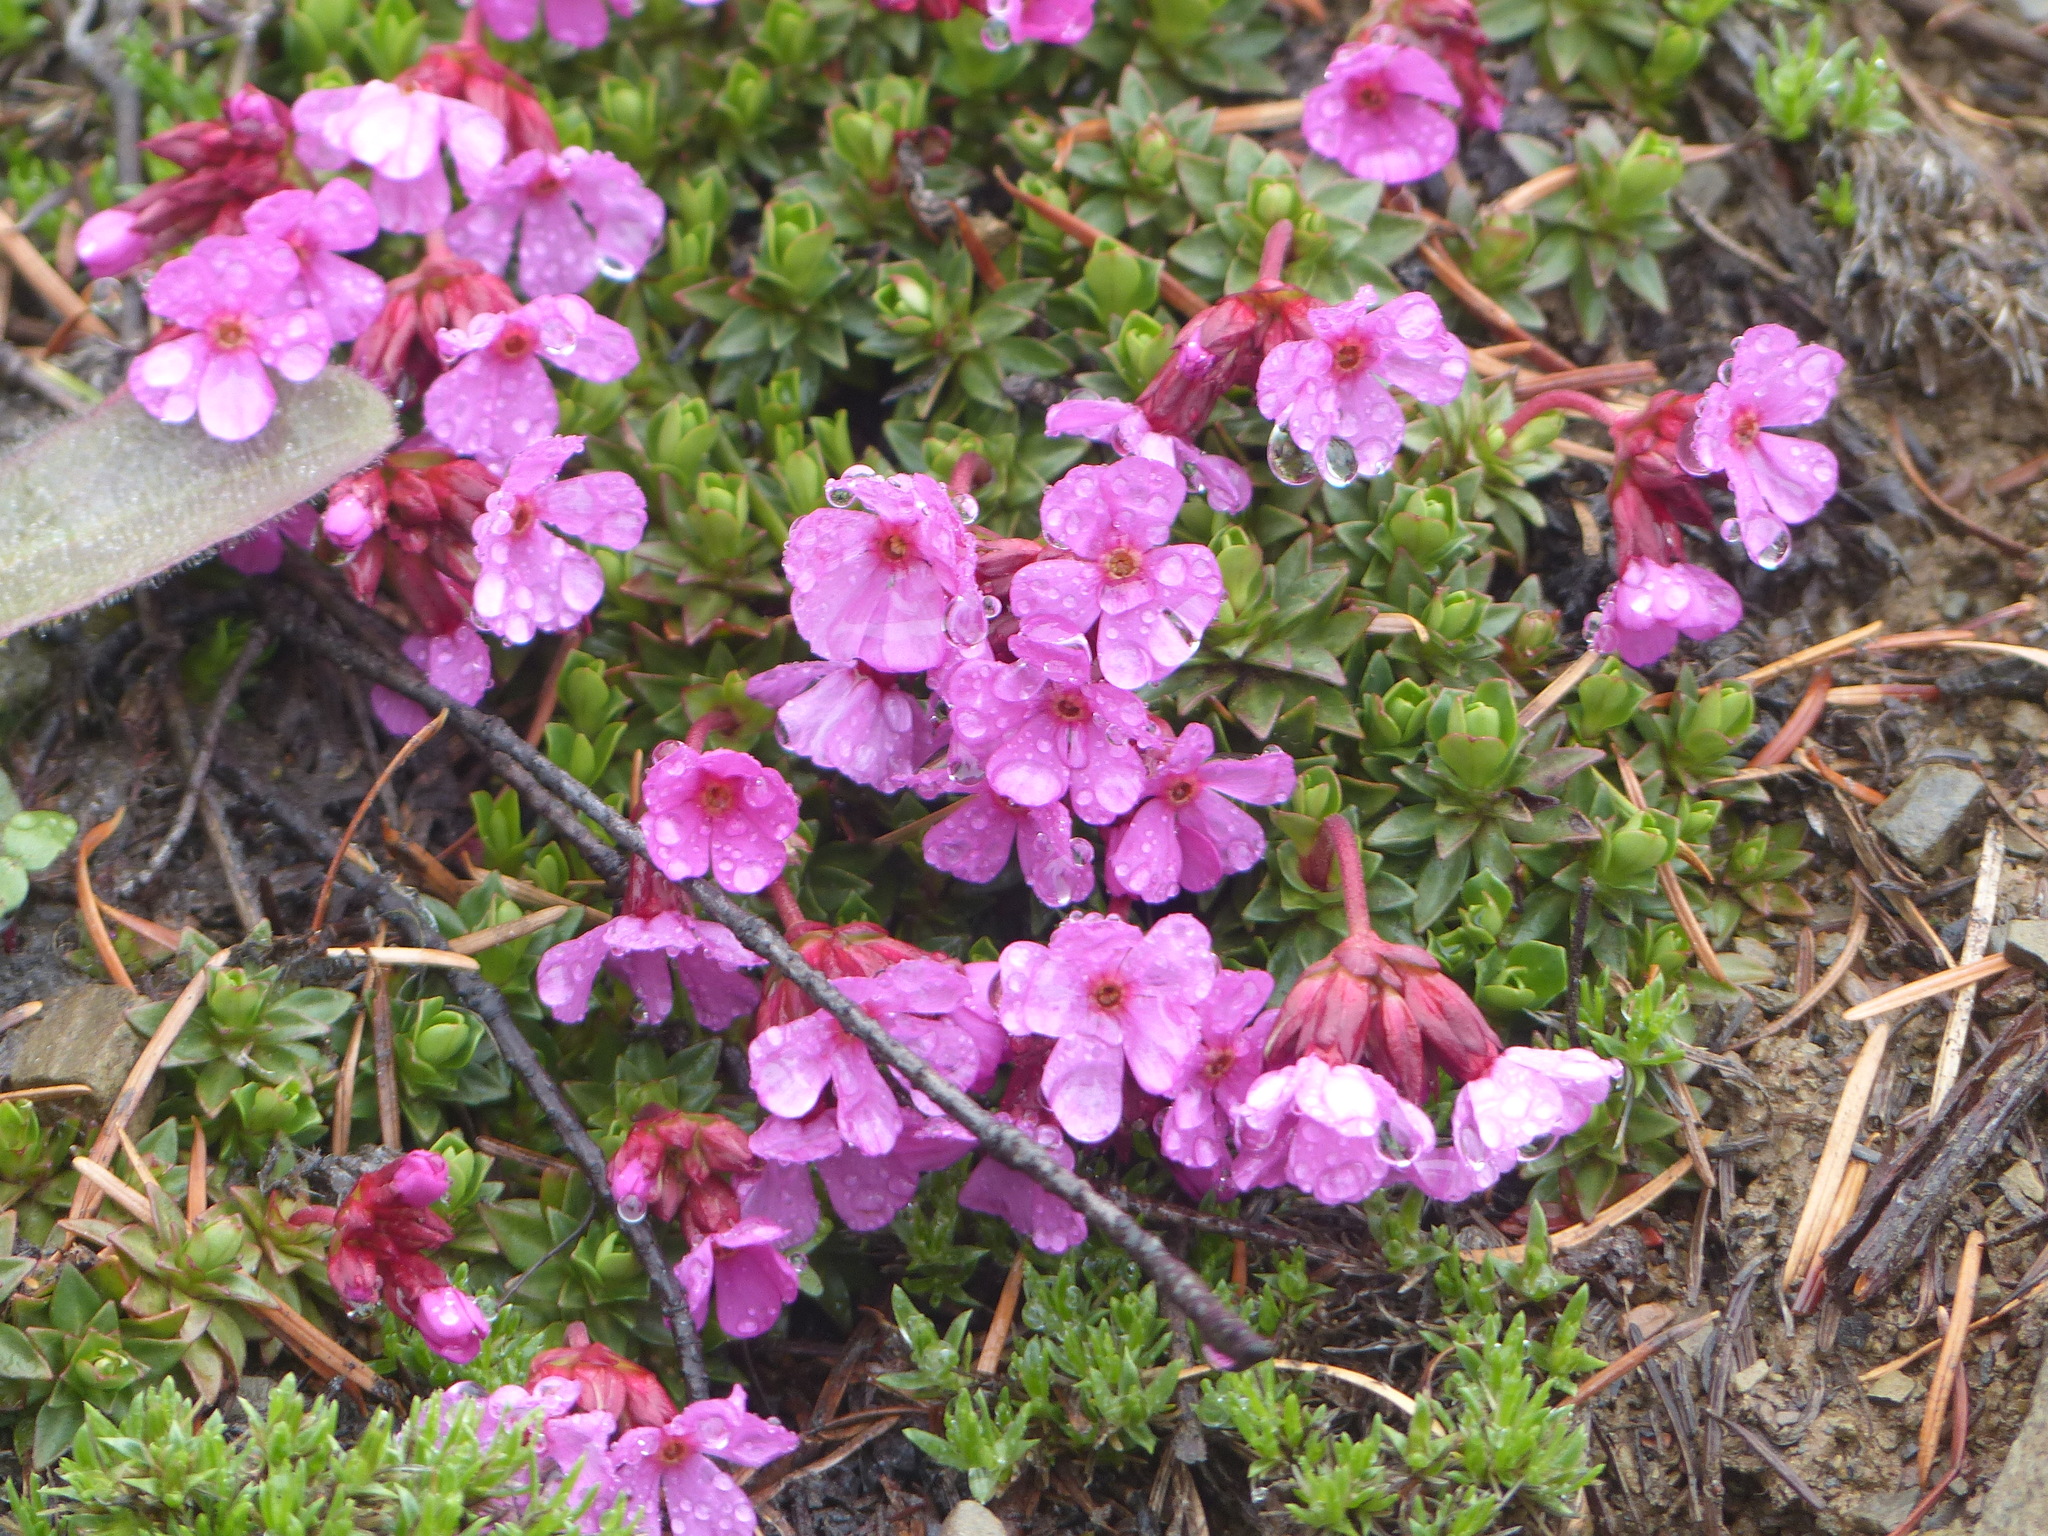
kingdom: Plantae
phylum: Tracheophyta
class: Magnoliopsida
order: Ericales
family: Primulaceae
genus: Androsace
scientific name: Androsace laevigata
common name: Cliff dwarf-primrose
